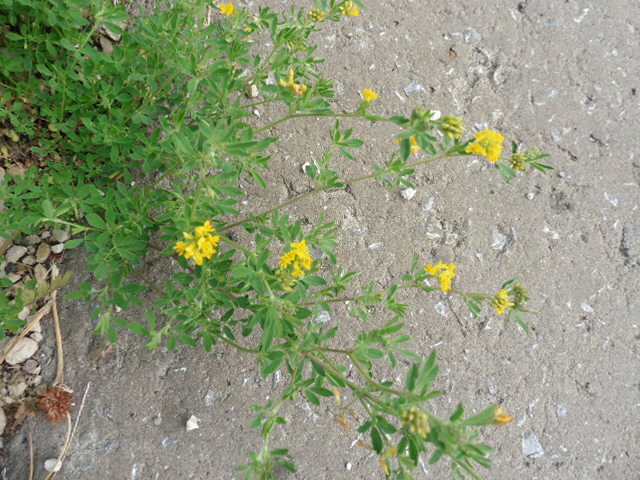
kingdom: Plantae
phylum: Tracheophyta
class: Magnoliopsida
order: Fabales
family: Fabaceae
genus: Medicago
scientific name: Medicago falcata
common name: Sickle medick
